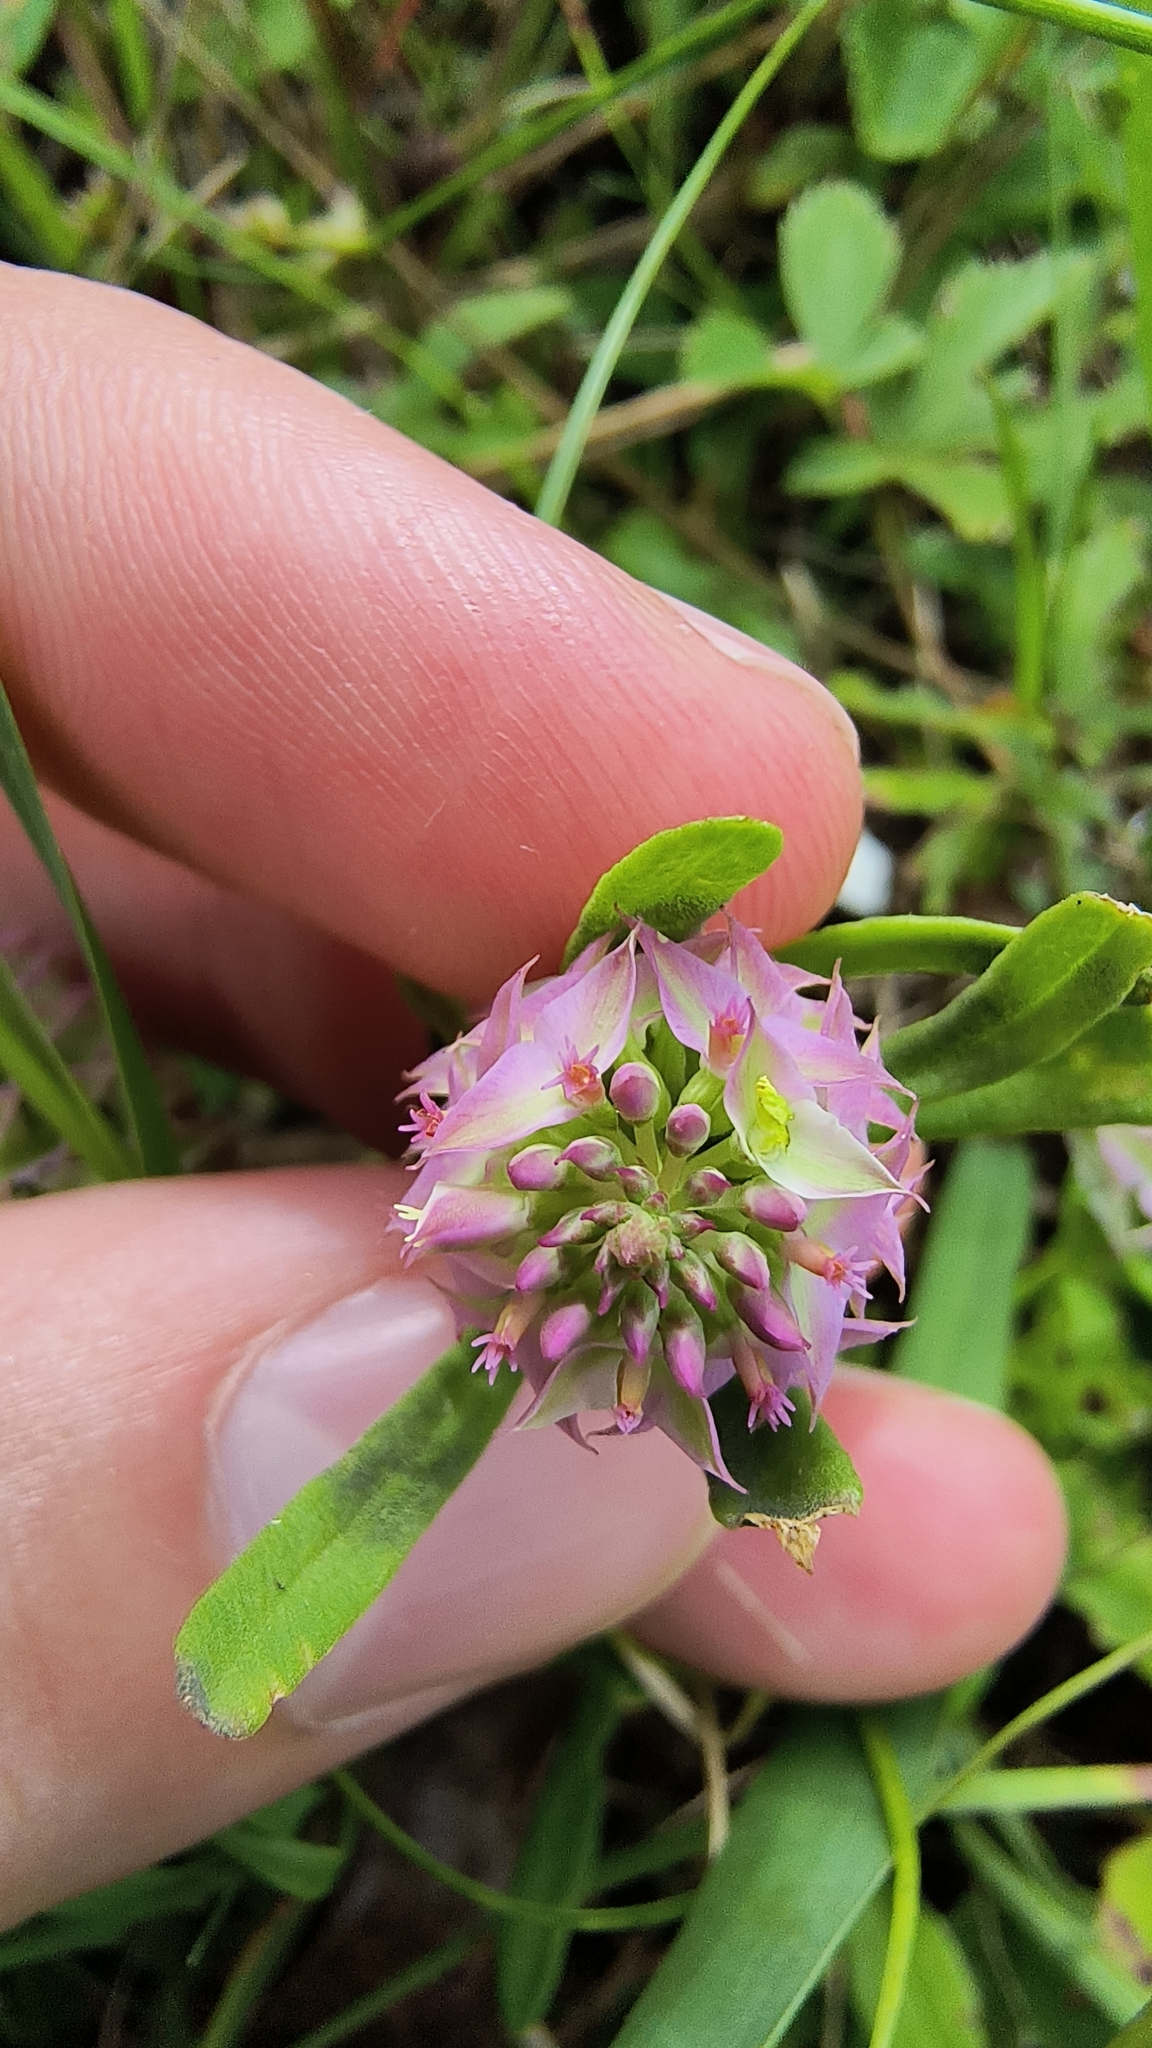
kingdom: Plantae
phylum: Tracheophyta
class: Magnoliopsida
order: Fabales
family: Polygalaceae
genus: Polygala
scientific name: Polygala cruciata
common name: Drumheads
